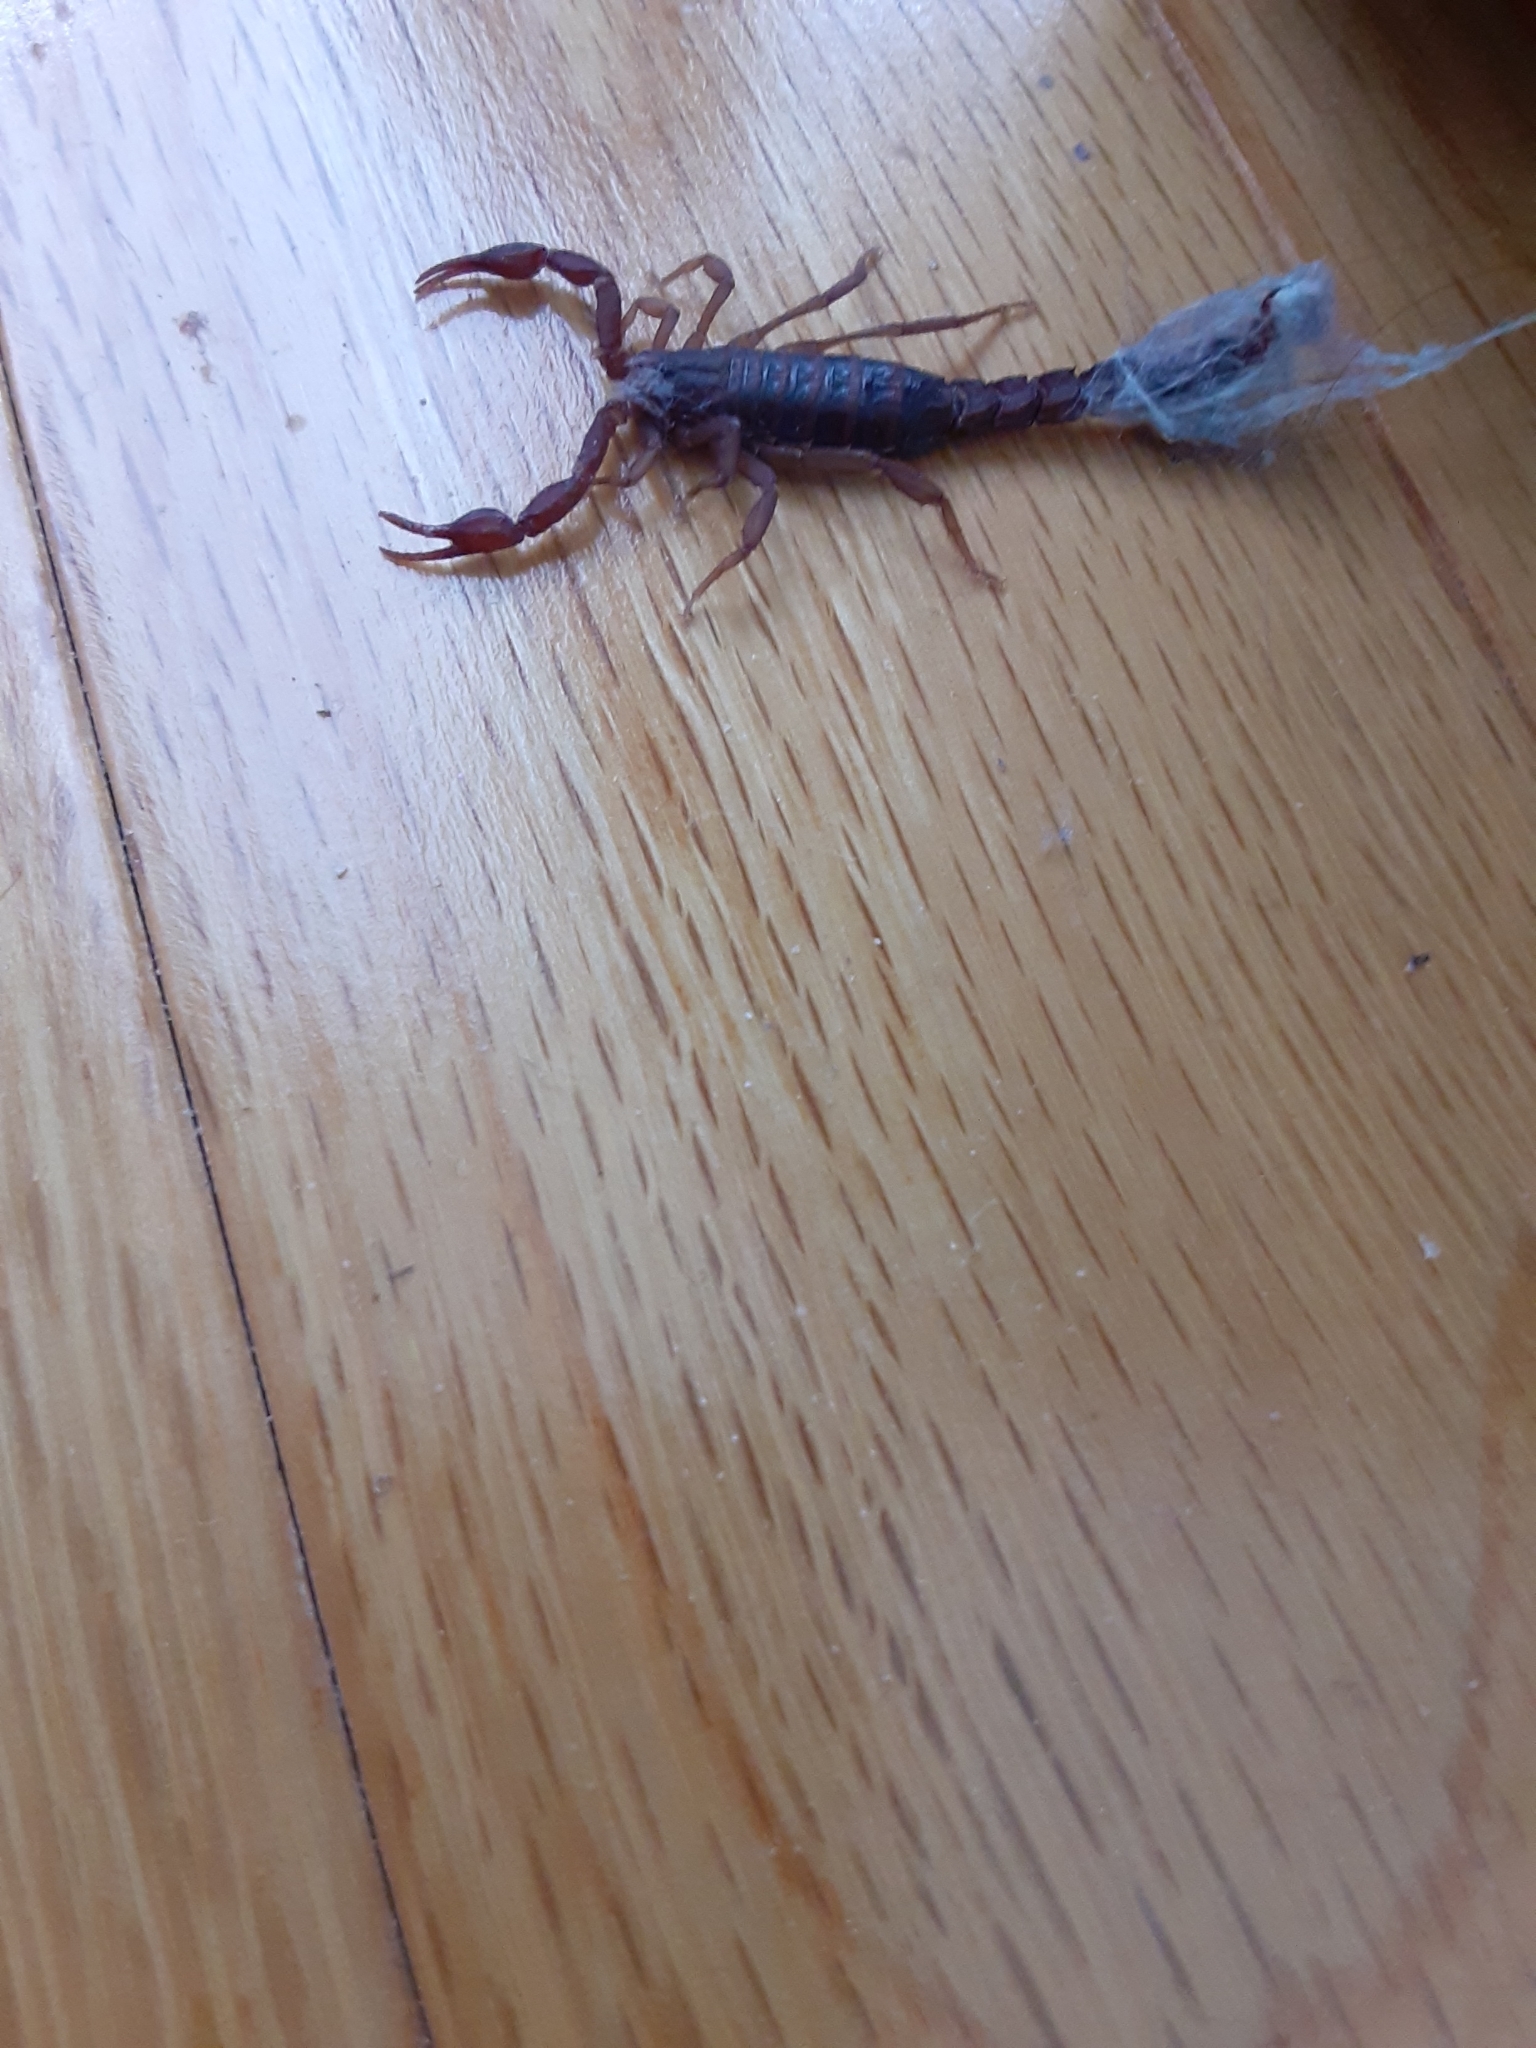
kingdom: Animalia
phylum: Arthropoda
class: Arachnida
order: Scorpiones
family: Vaejovidae
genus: Vaejovis
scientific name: Vaejovis carolinianus
